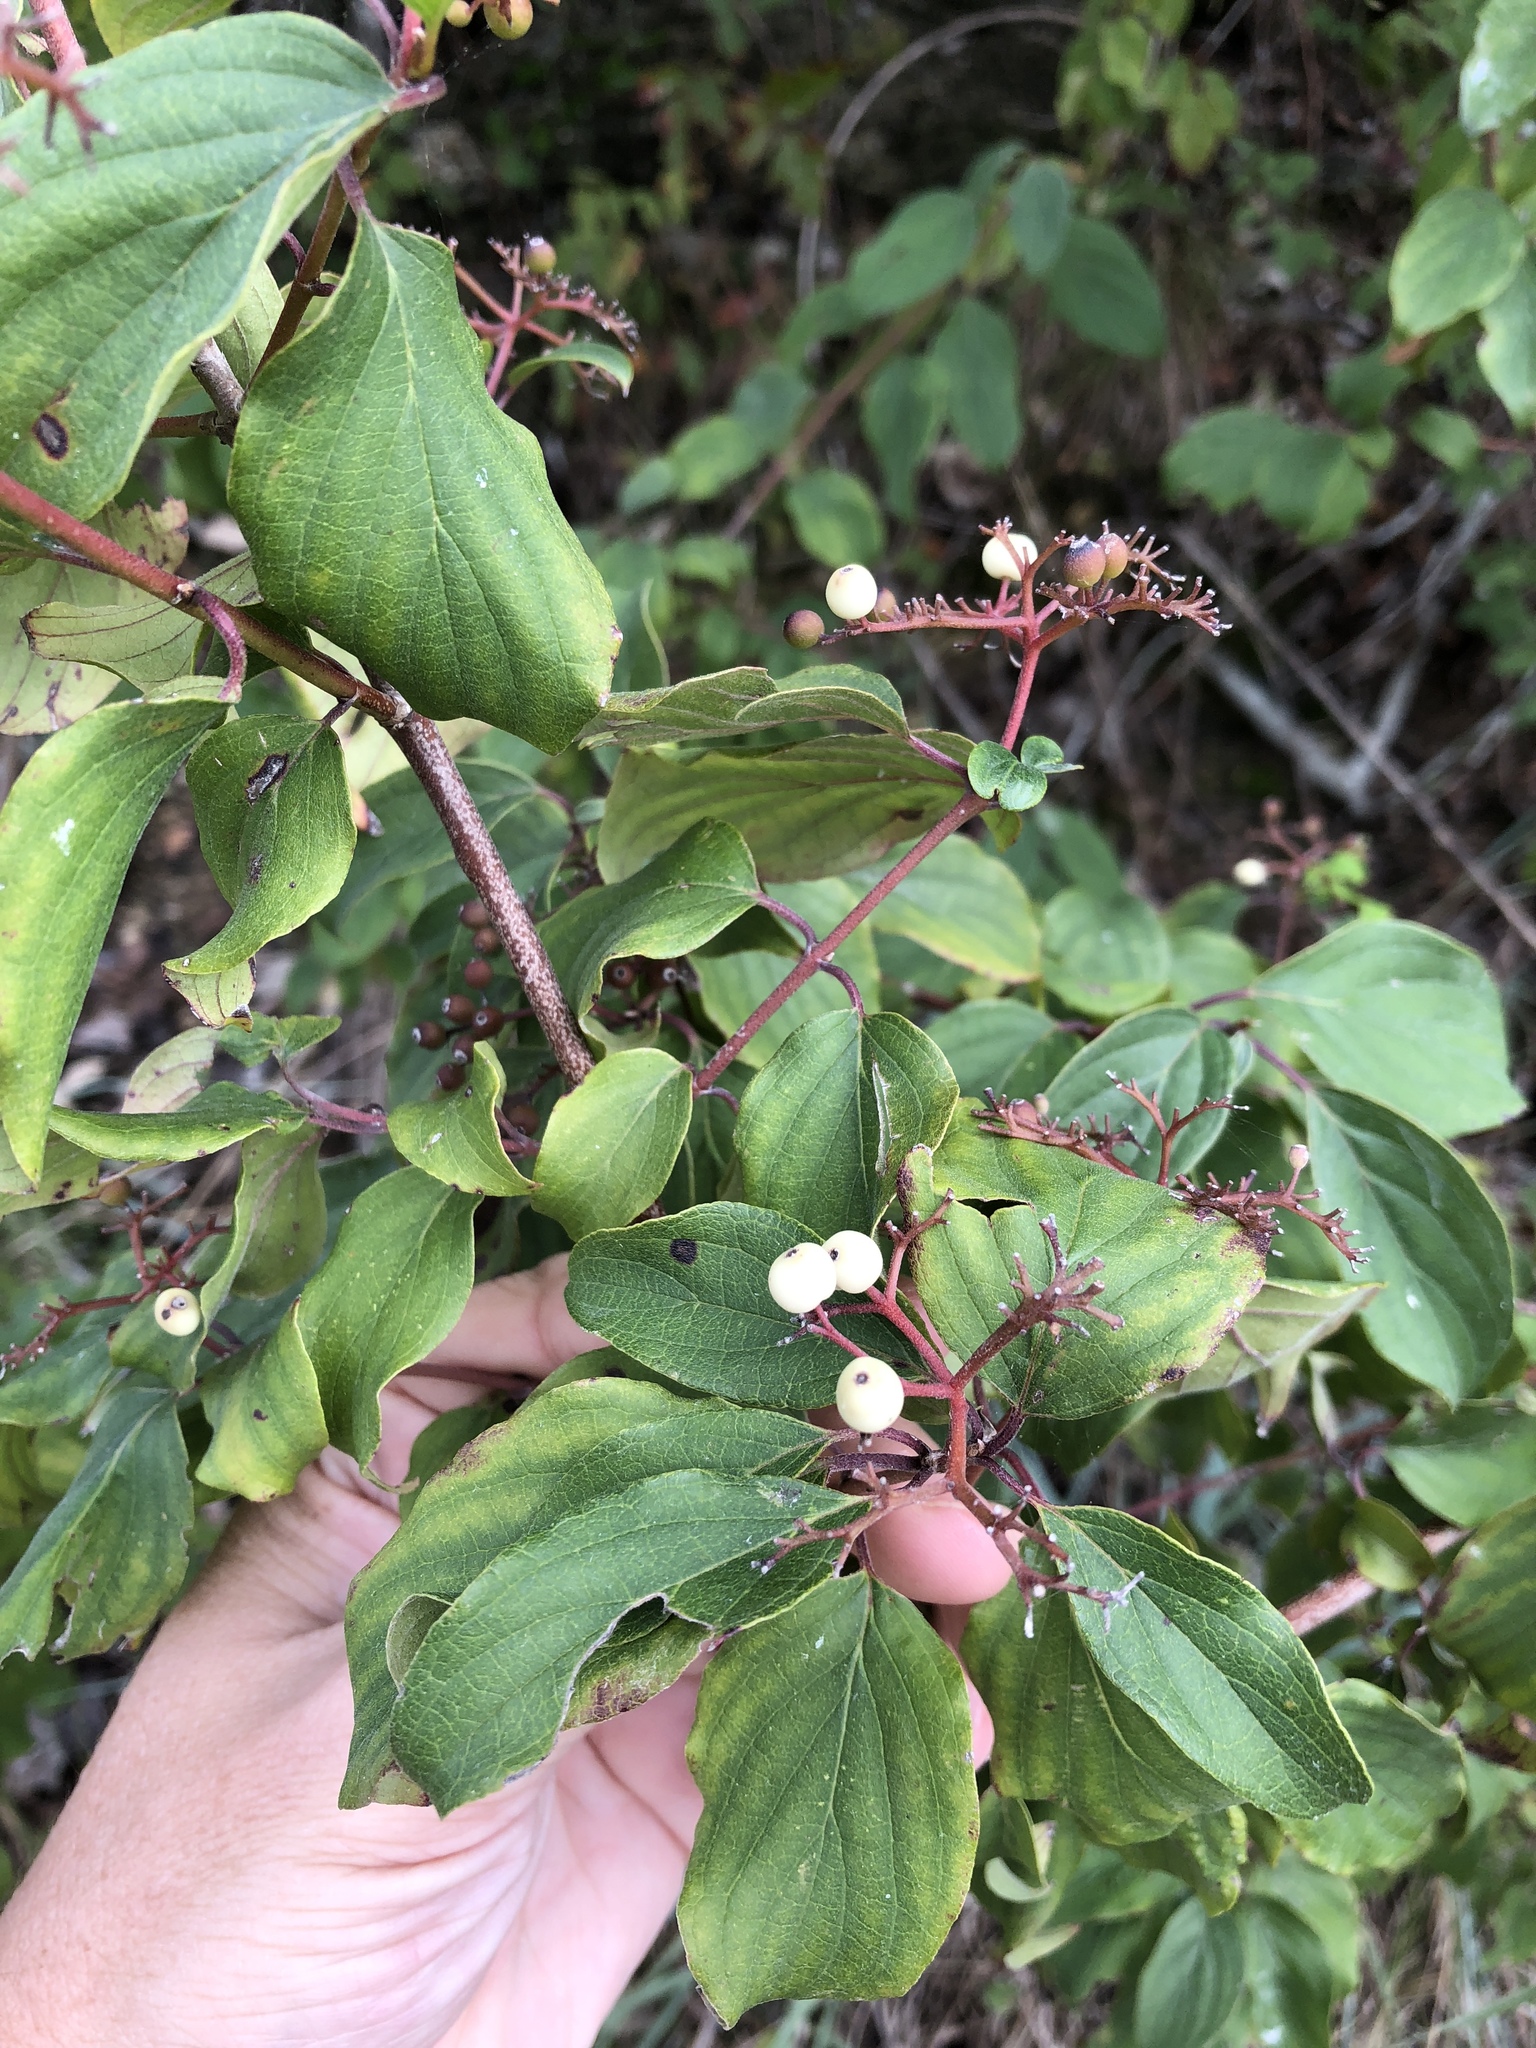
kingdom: Plantae
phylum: Tracheophyta
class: Magnoliopsida
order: Cornales
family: Cornaceae
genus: Cornus
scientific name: Cornus drummondii
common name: Rough-leaf dogwood
